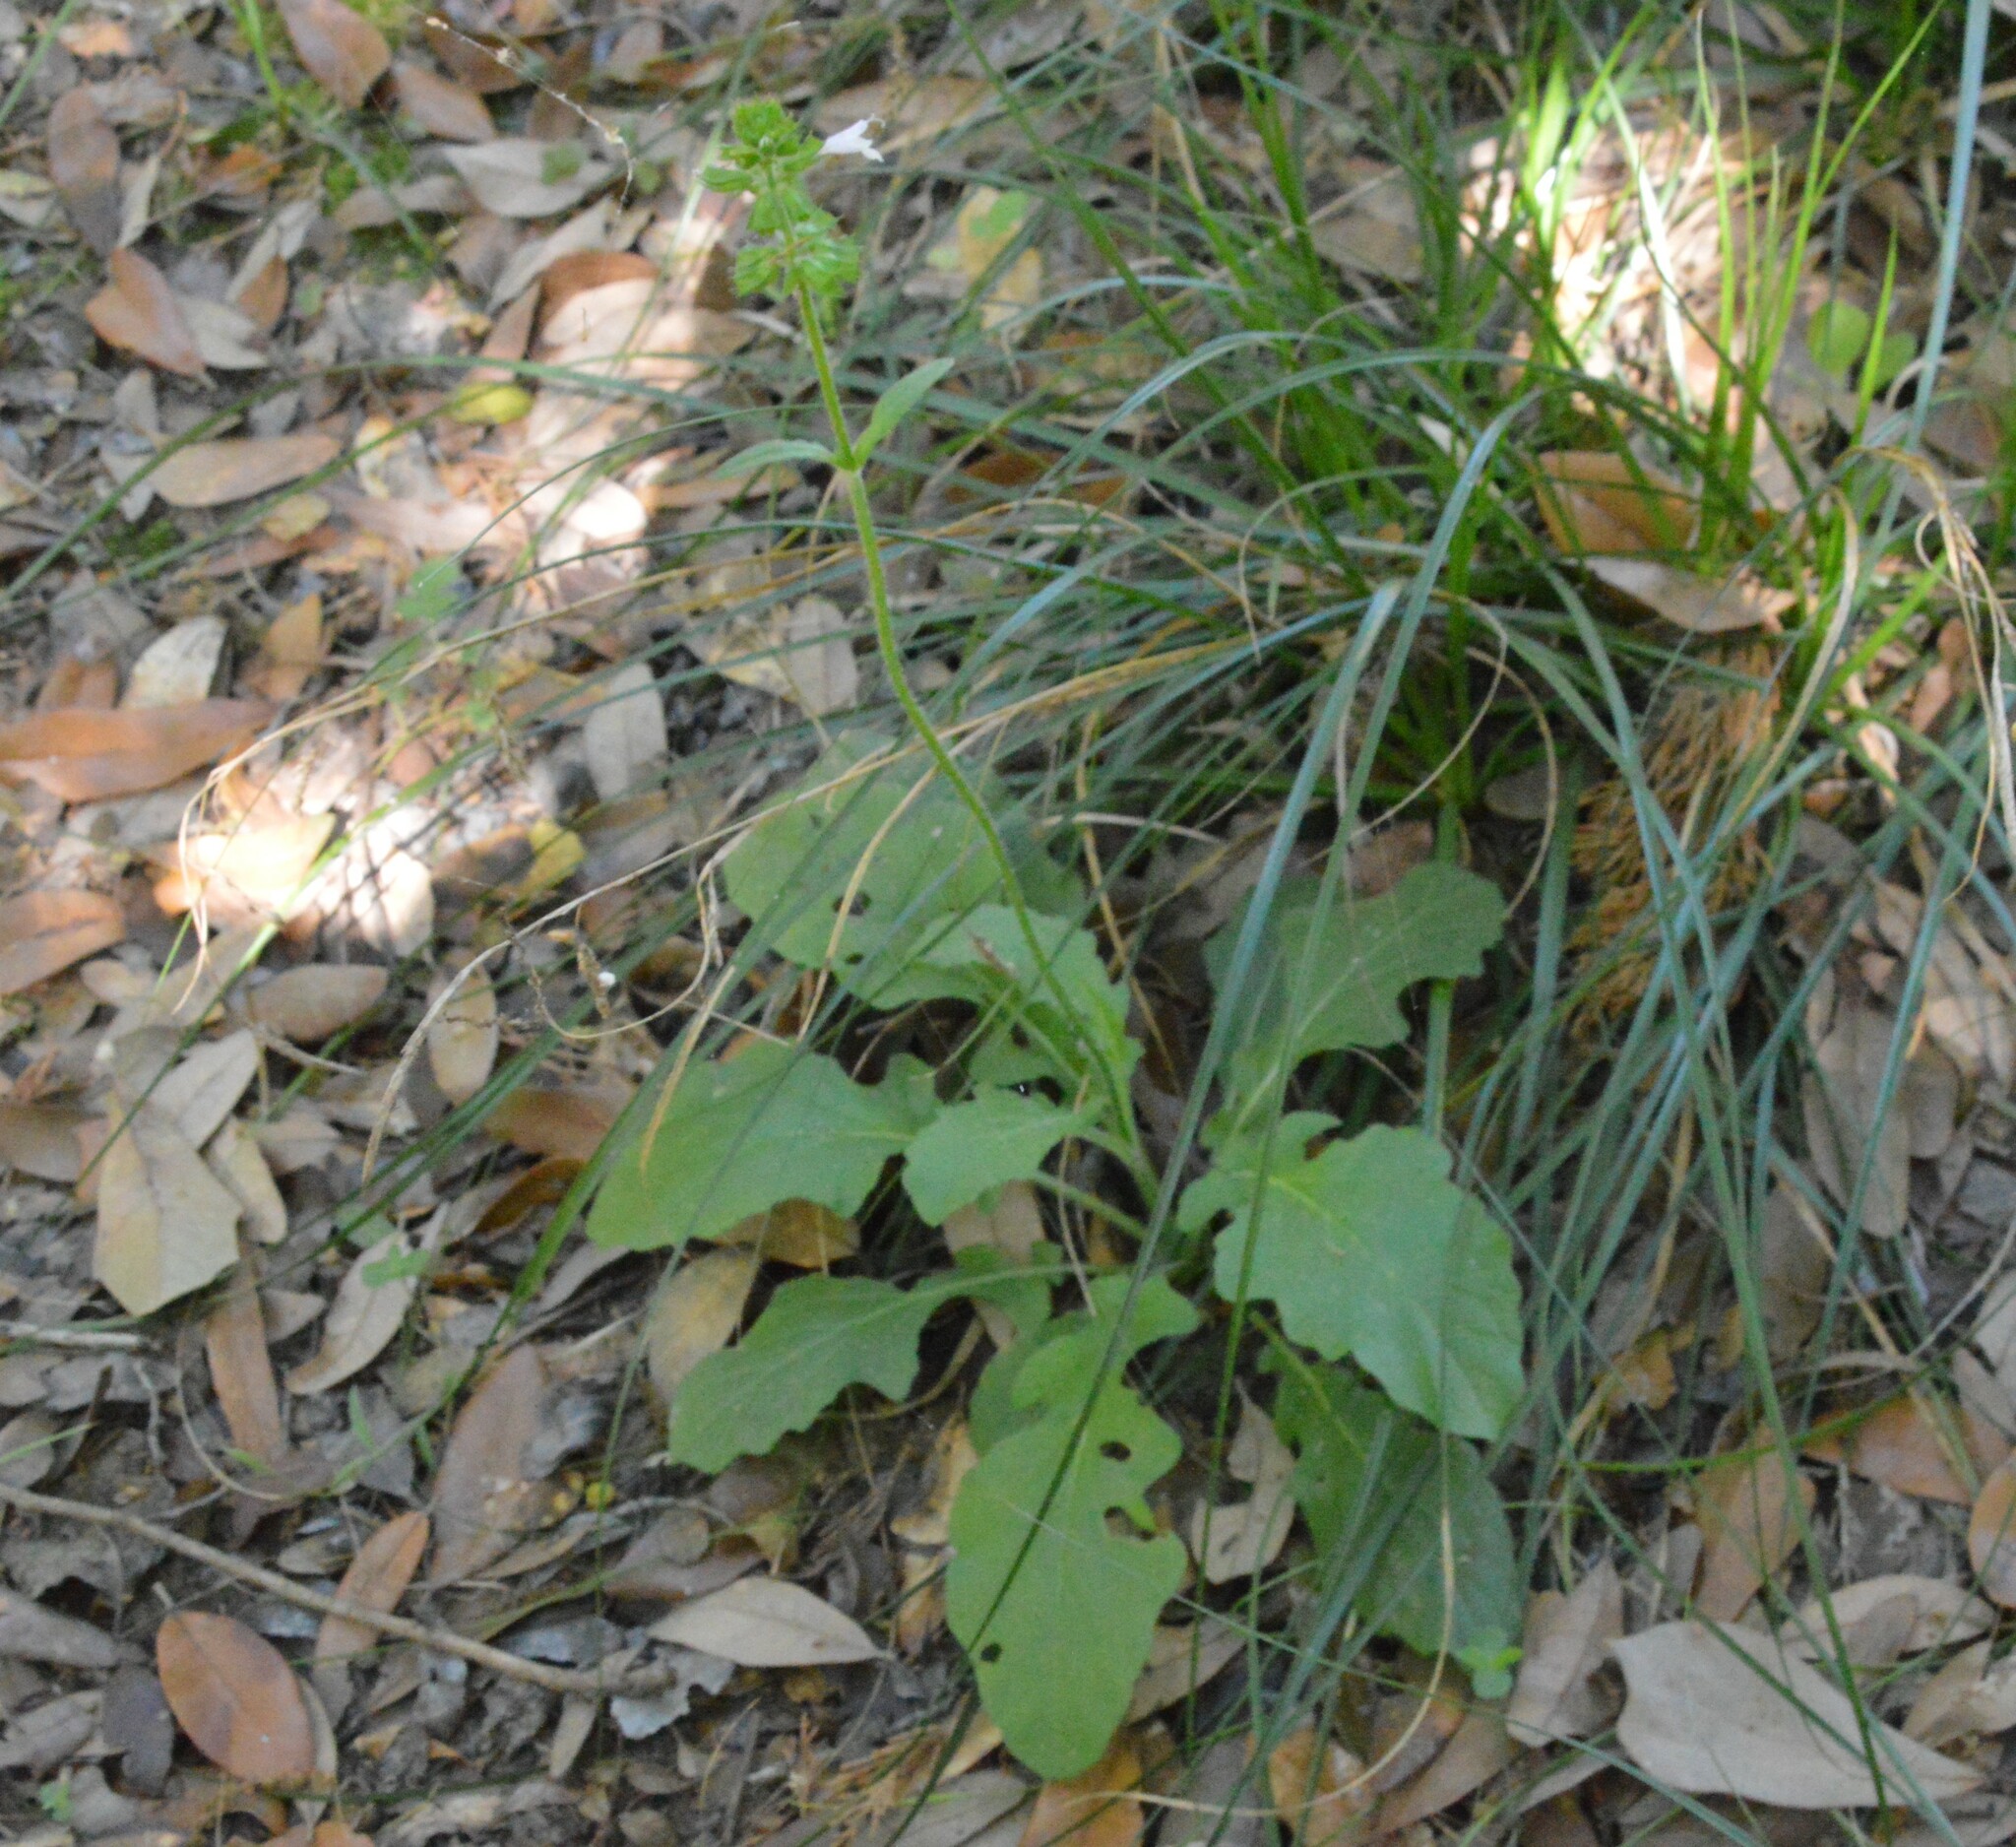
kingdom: Plantae
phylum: Tracheophyta
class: Magnoliopsida
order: Lamiales
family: Lamiaceae
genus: Salvia
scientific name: Salvia lyrata
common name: Cancerweed
